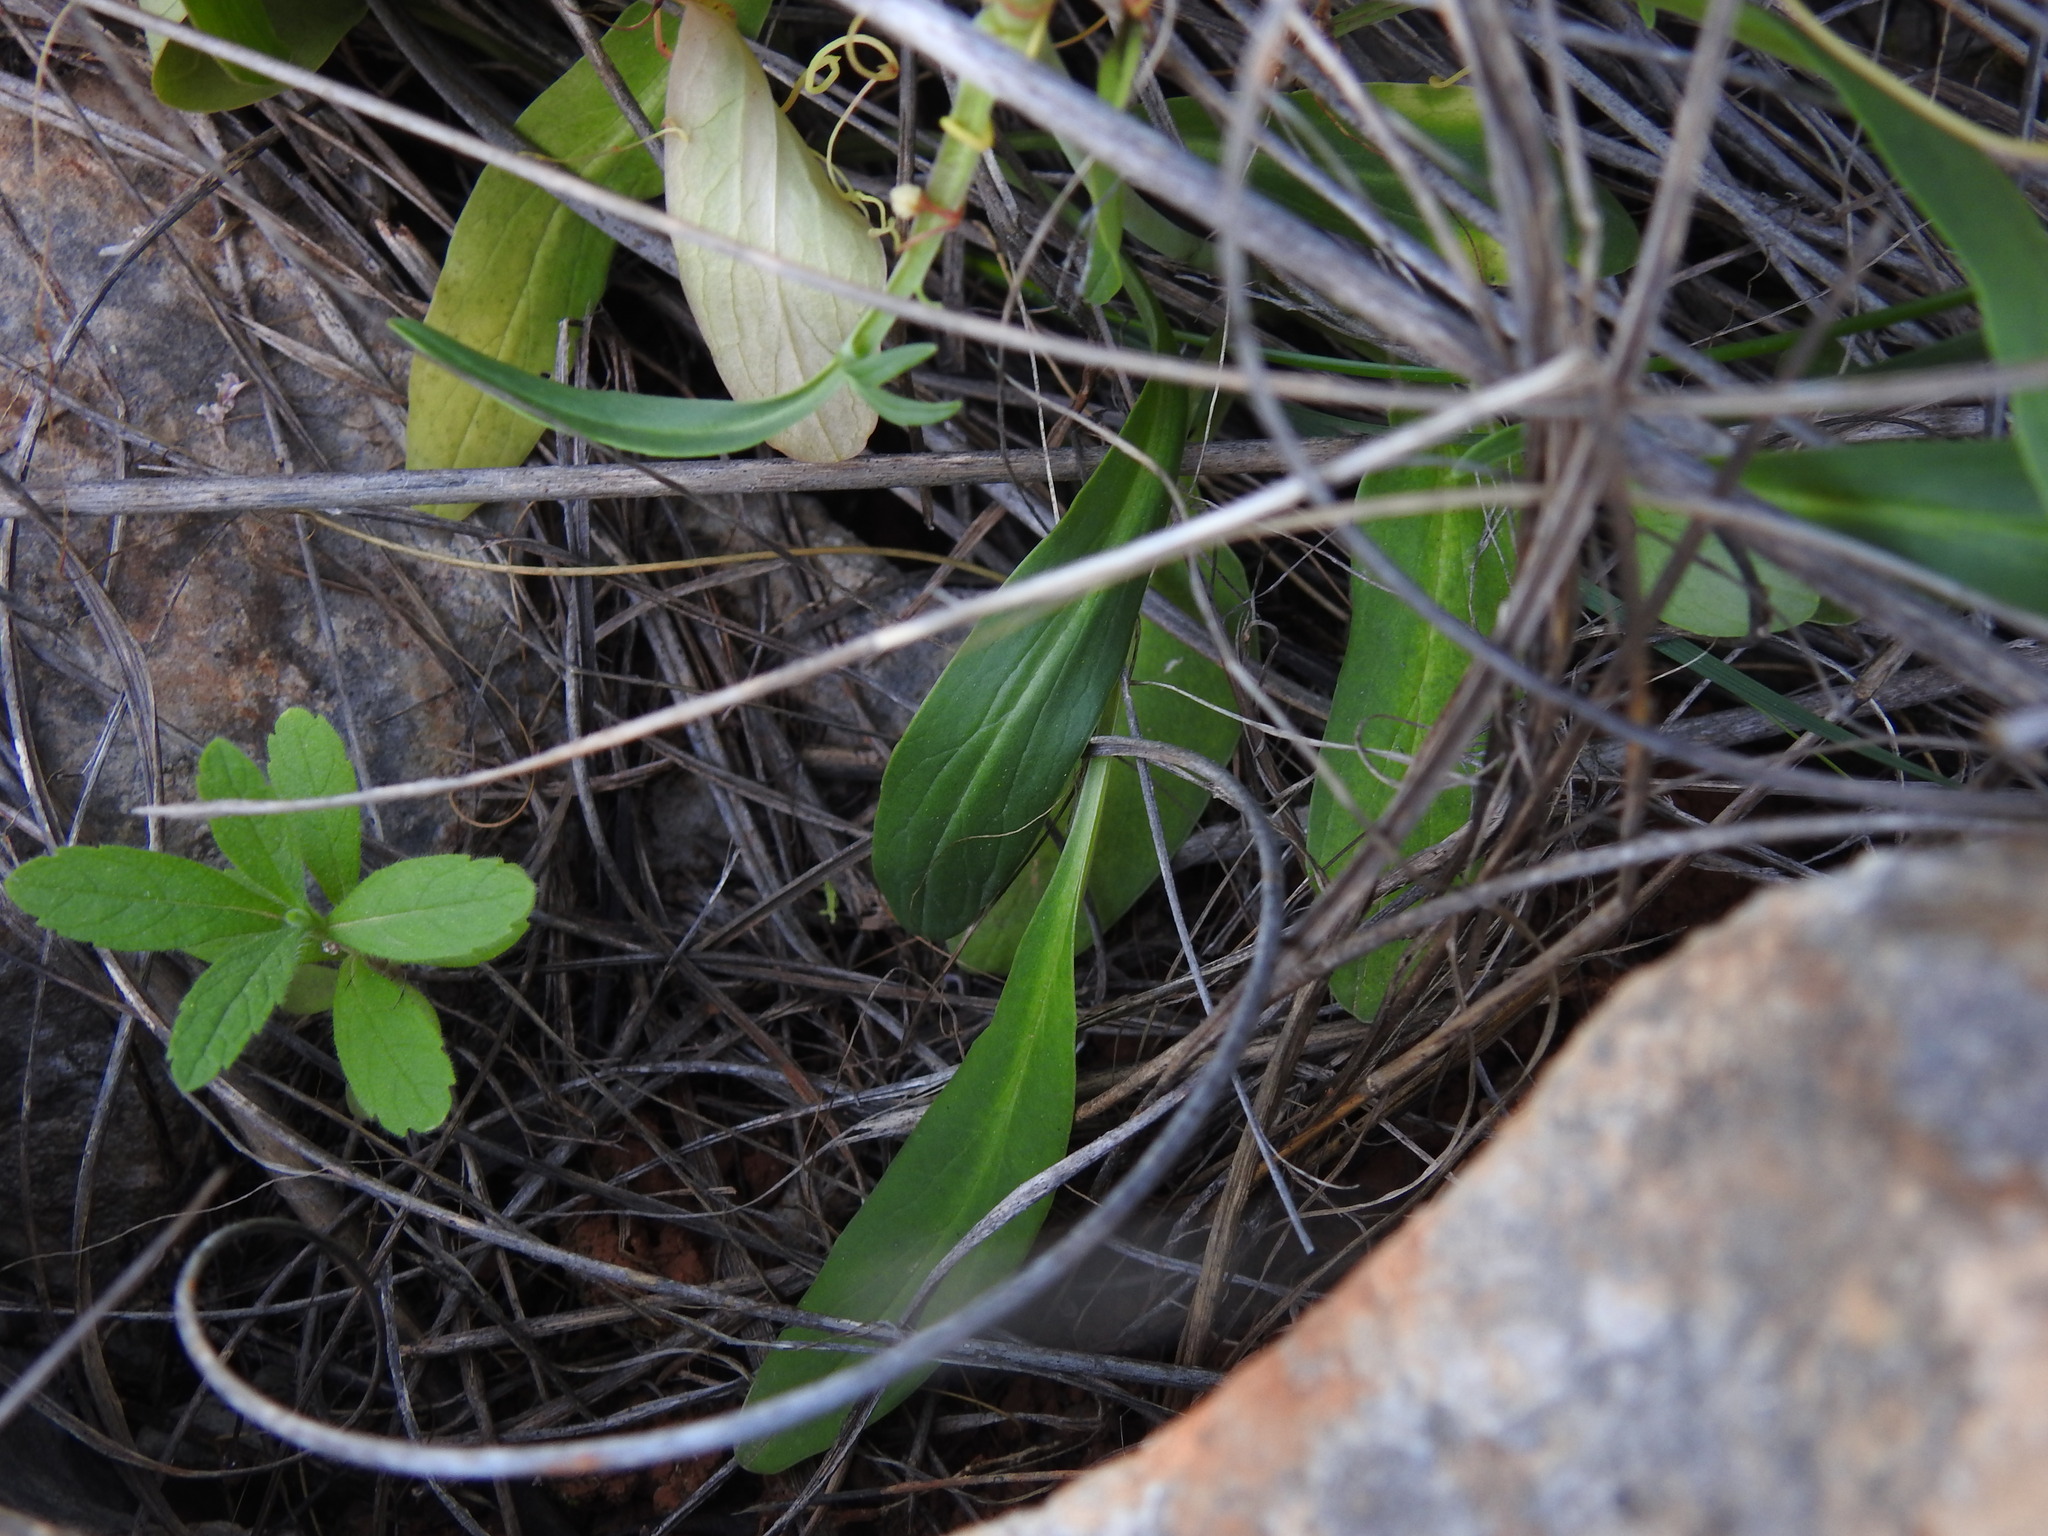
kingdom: Plantae
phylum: Tracheophyta
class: Magnoliopsida
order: Dipsacales
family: Caprifoliaceae
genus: Valeriana
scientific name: Valeriana tuberosa
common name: Tuberous valerian
